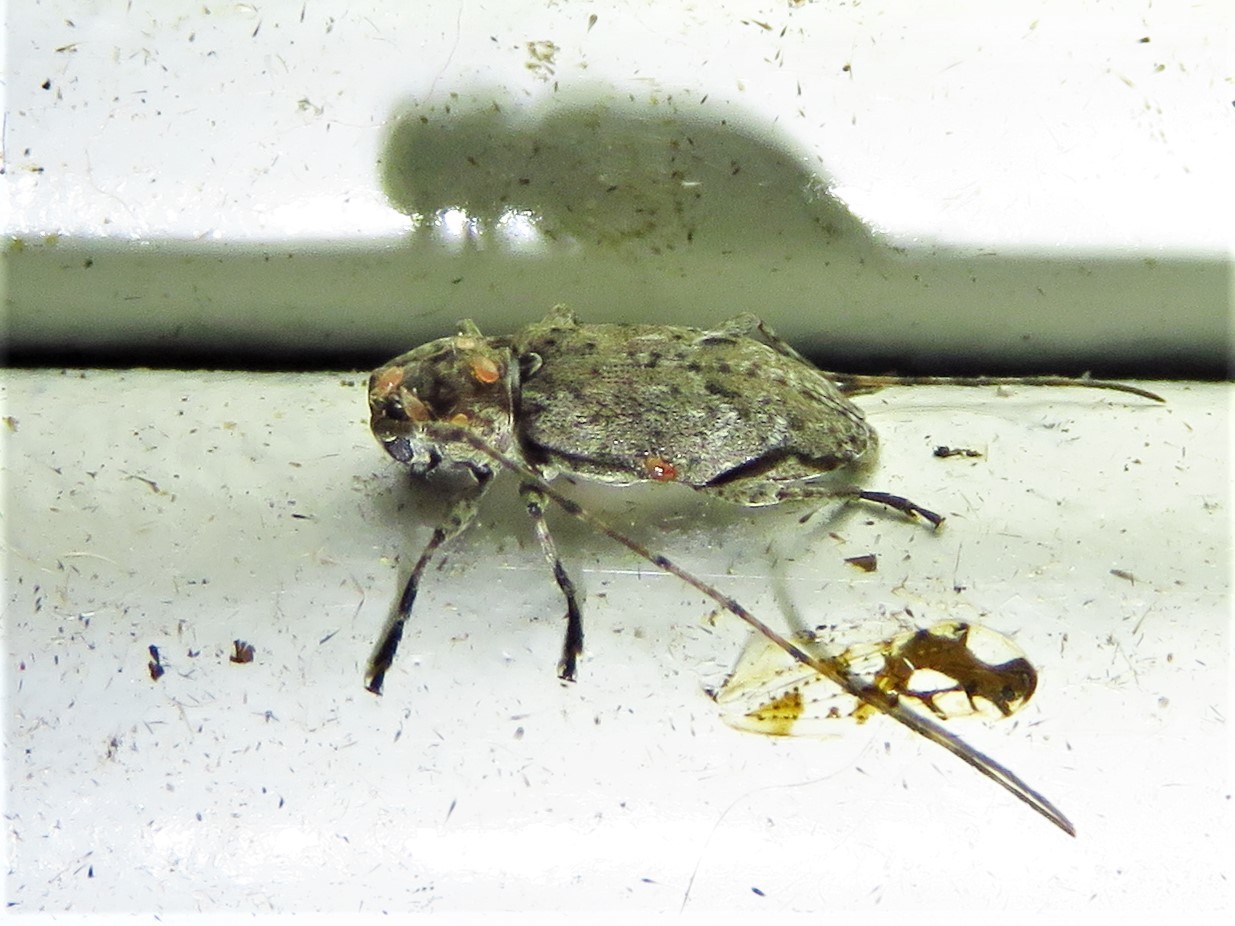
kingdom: Animalia
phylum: Arthropoda
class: Insecta
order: Coleoptera
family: Cerambycidae
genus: Sternidius
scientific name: Sternidius misellus
